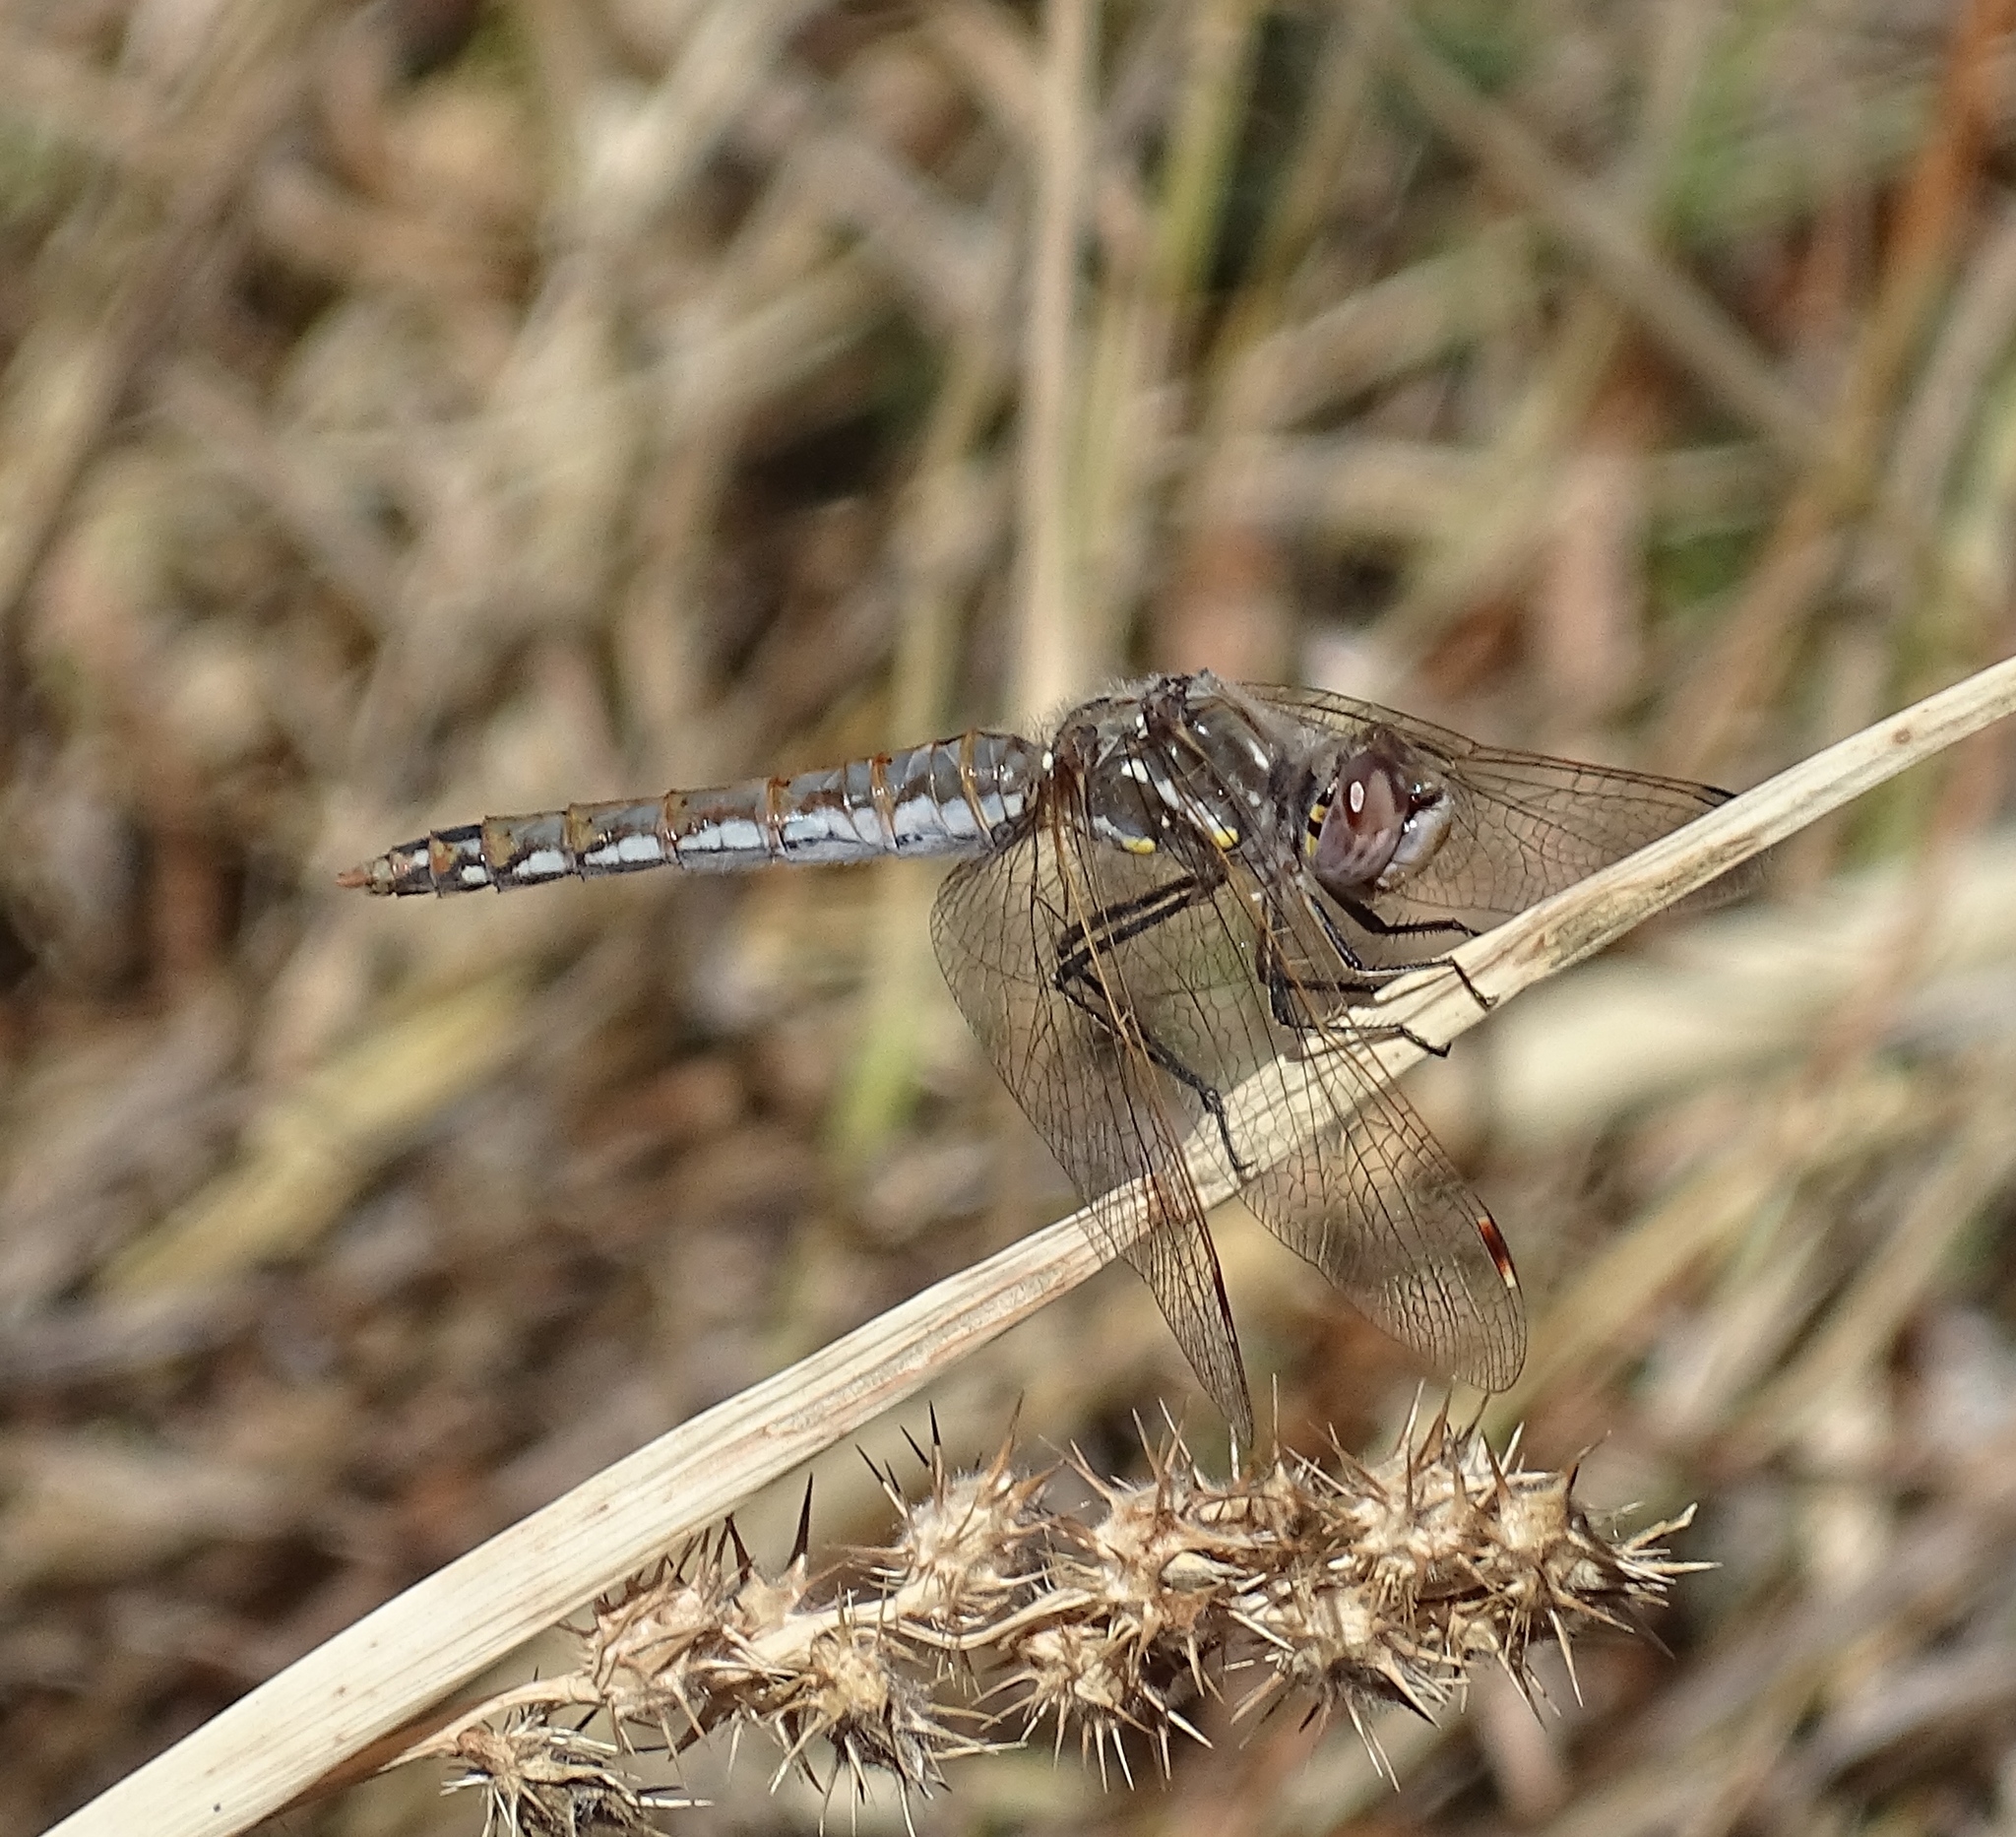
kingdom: Animalia
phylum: Arthropoda
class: Insecta
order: Odonata
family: Libellulidae
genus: Sympetrum
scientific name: Sympetrum corruptum
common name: Variegated meadowhawk
